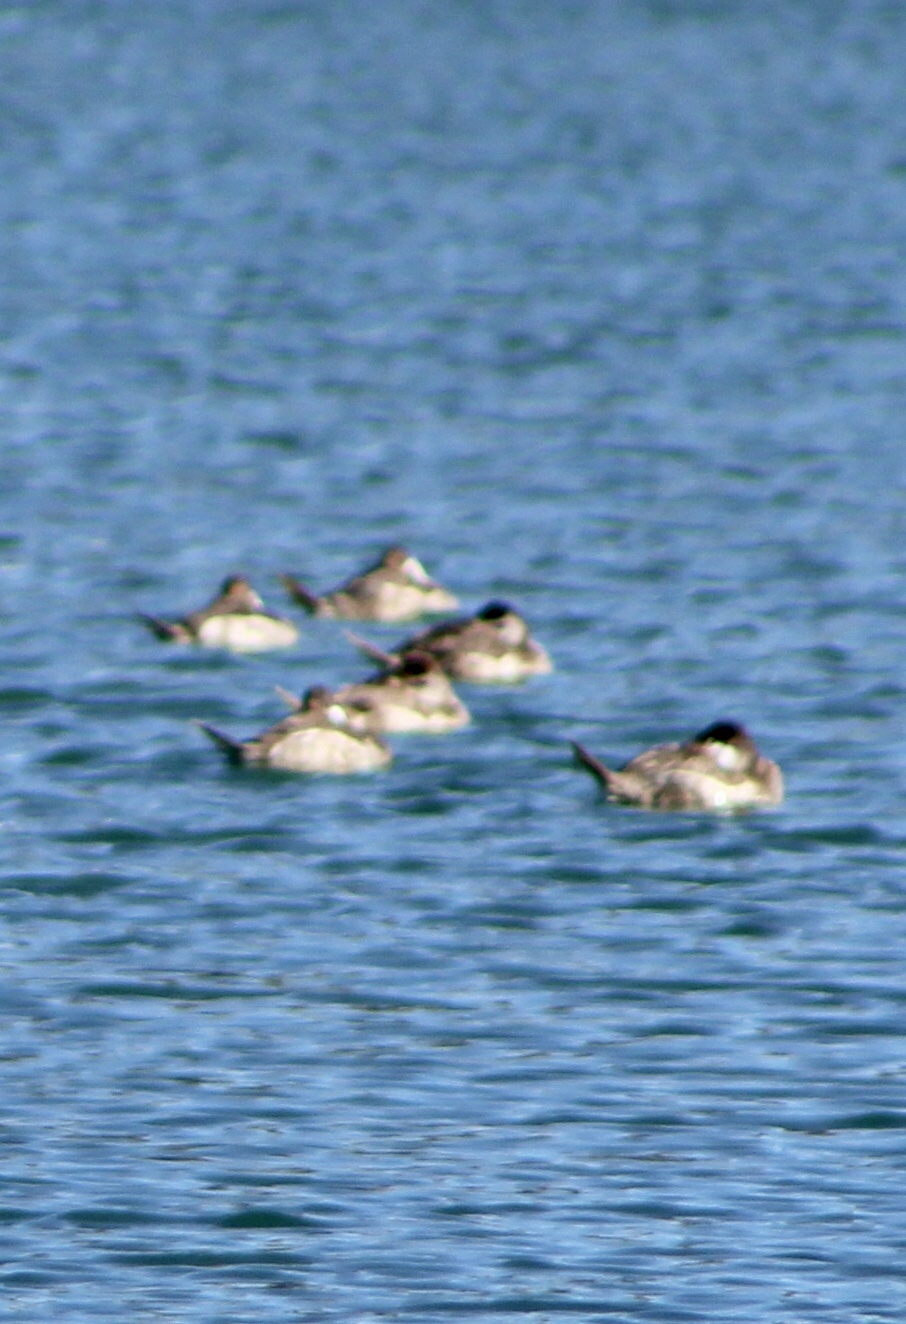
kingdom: Animalia
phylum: Chordata
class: Aves
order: Anseriformes
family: Anatidae
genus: Oxyura
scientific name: Oxyura jamaicensis
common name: Ruddy duck
